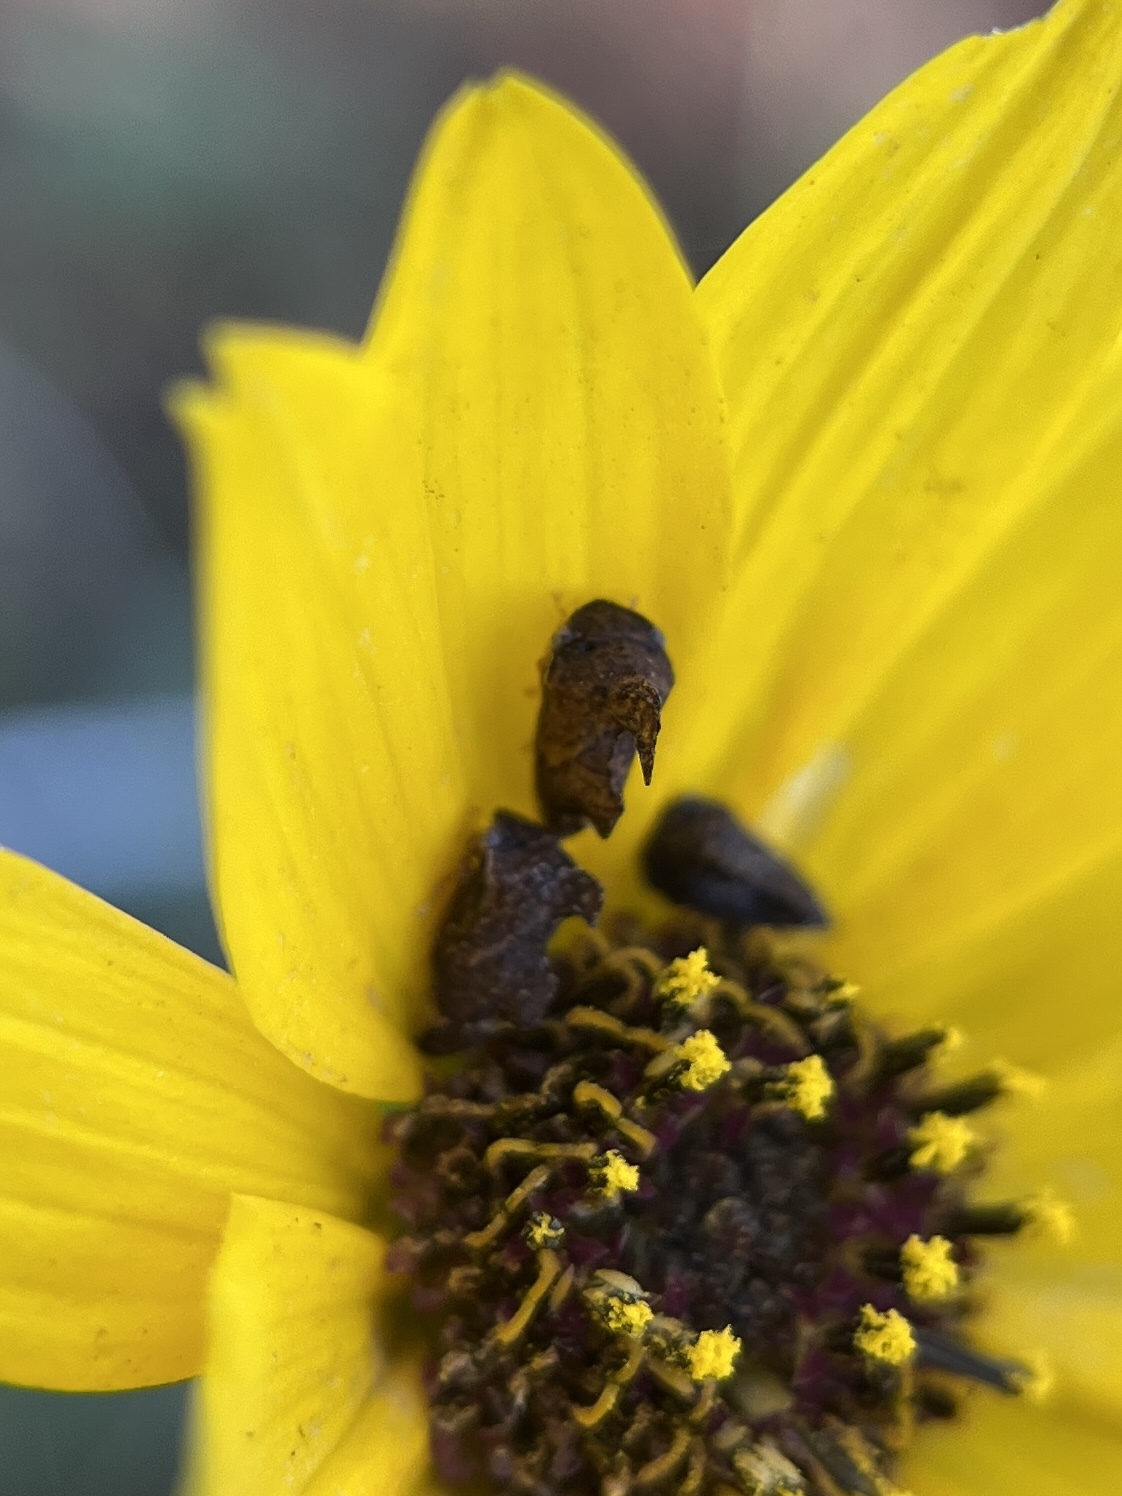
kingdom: Animalia
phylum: Arthropoda
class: Insecta
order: Hemiptera
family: Membracidae
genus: Entylia
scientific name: Entylia carinata
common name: Keeled treehopper
